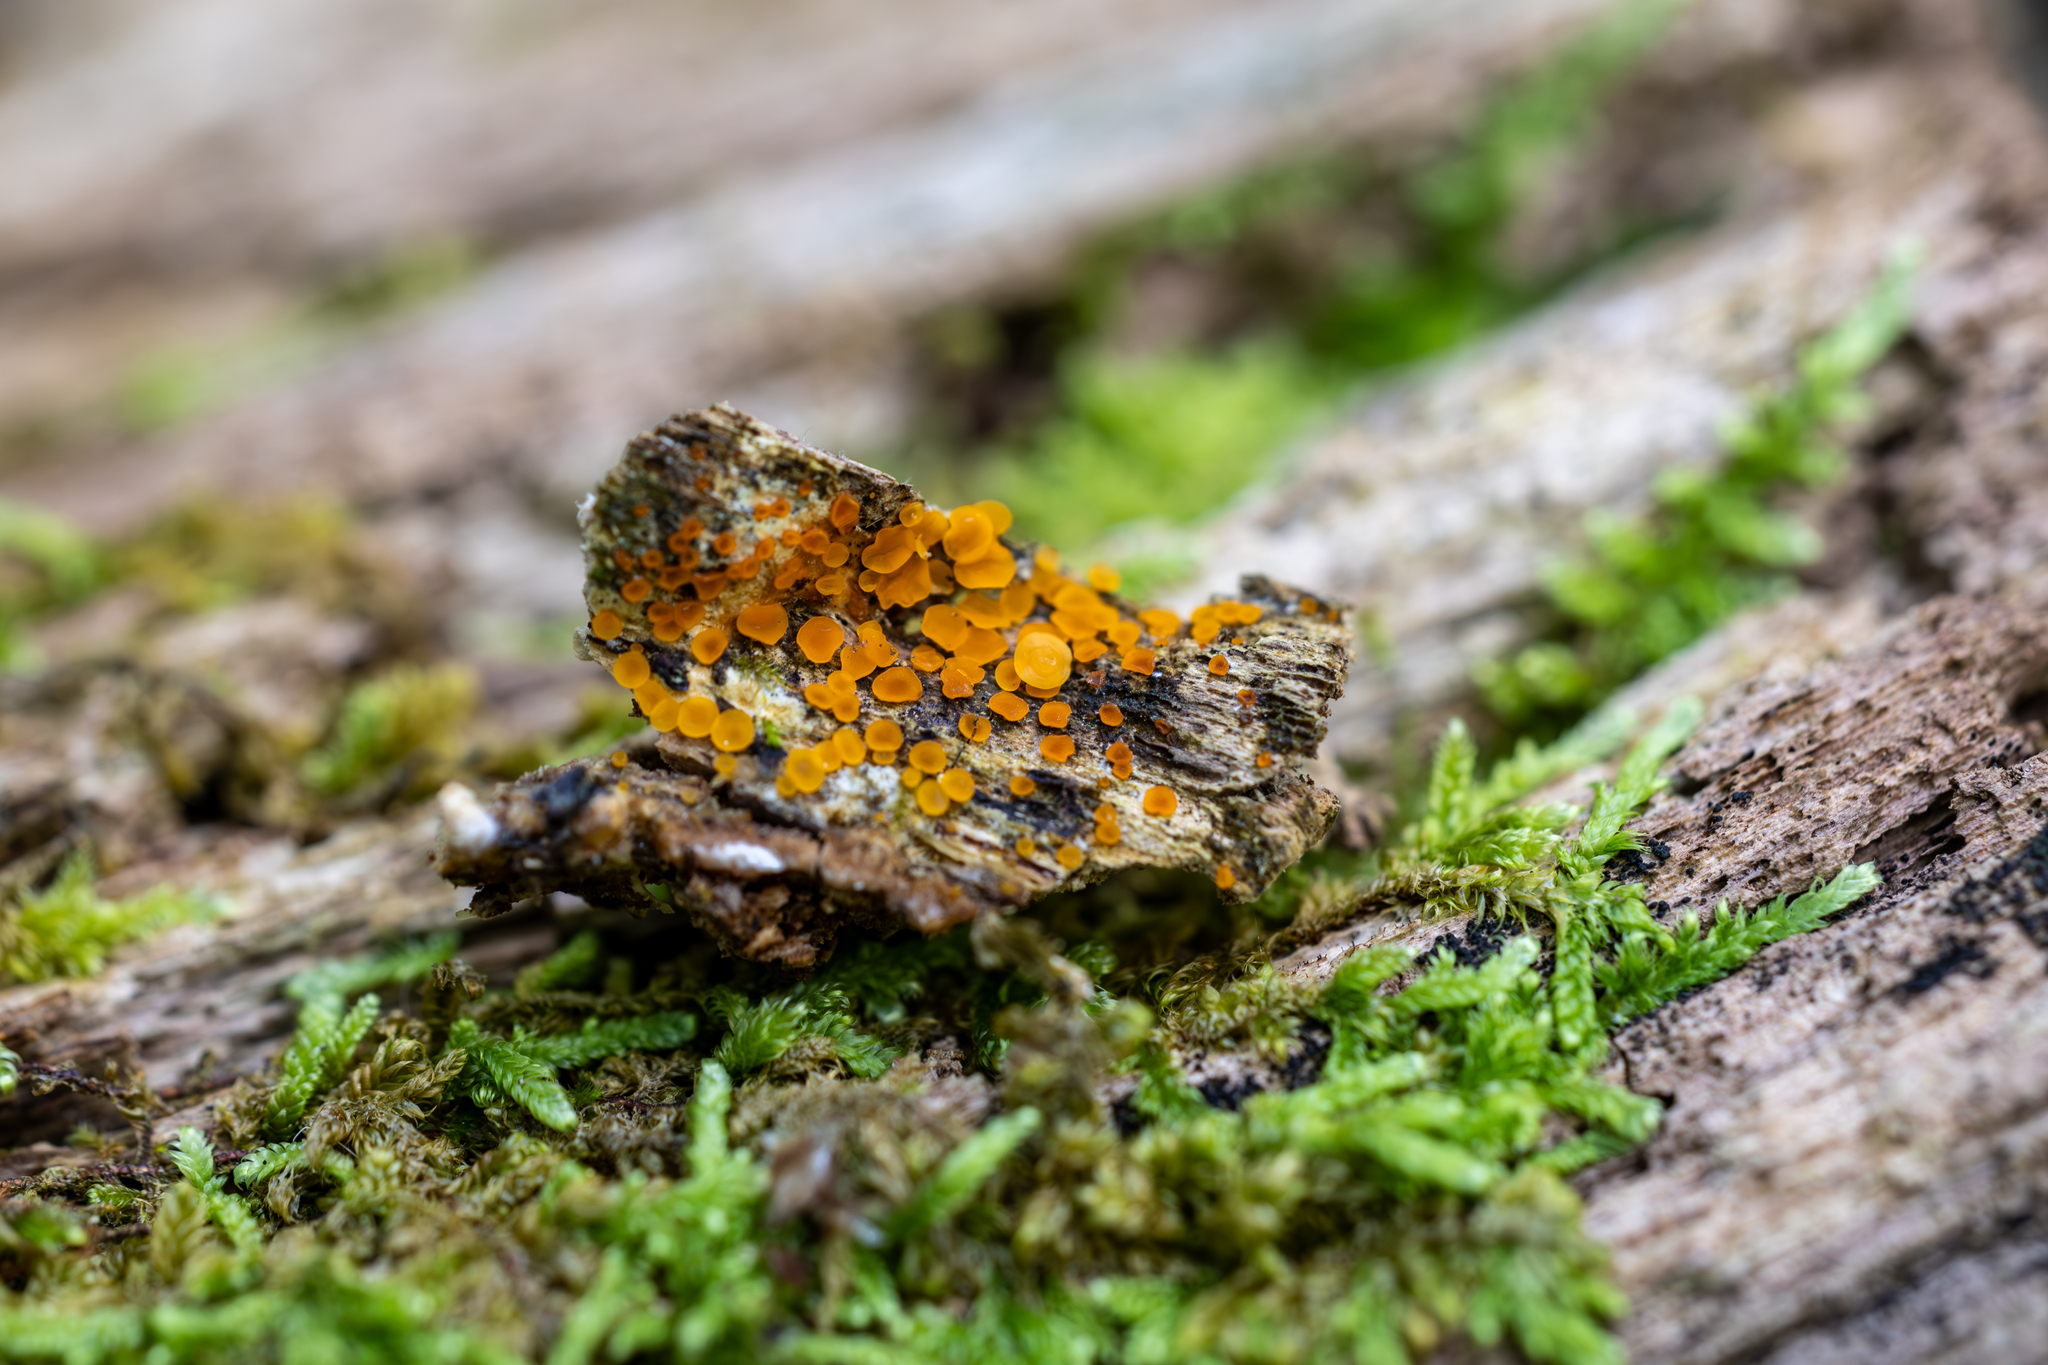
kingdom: Fungi
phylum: Ascomycota
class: Orbiliomycetes
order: Orbiliales
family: Orbiliaceae
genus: Orbilia
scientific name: Orbilia xanthostigma
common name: Common glasscup
